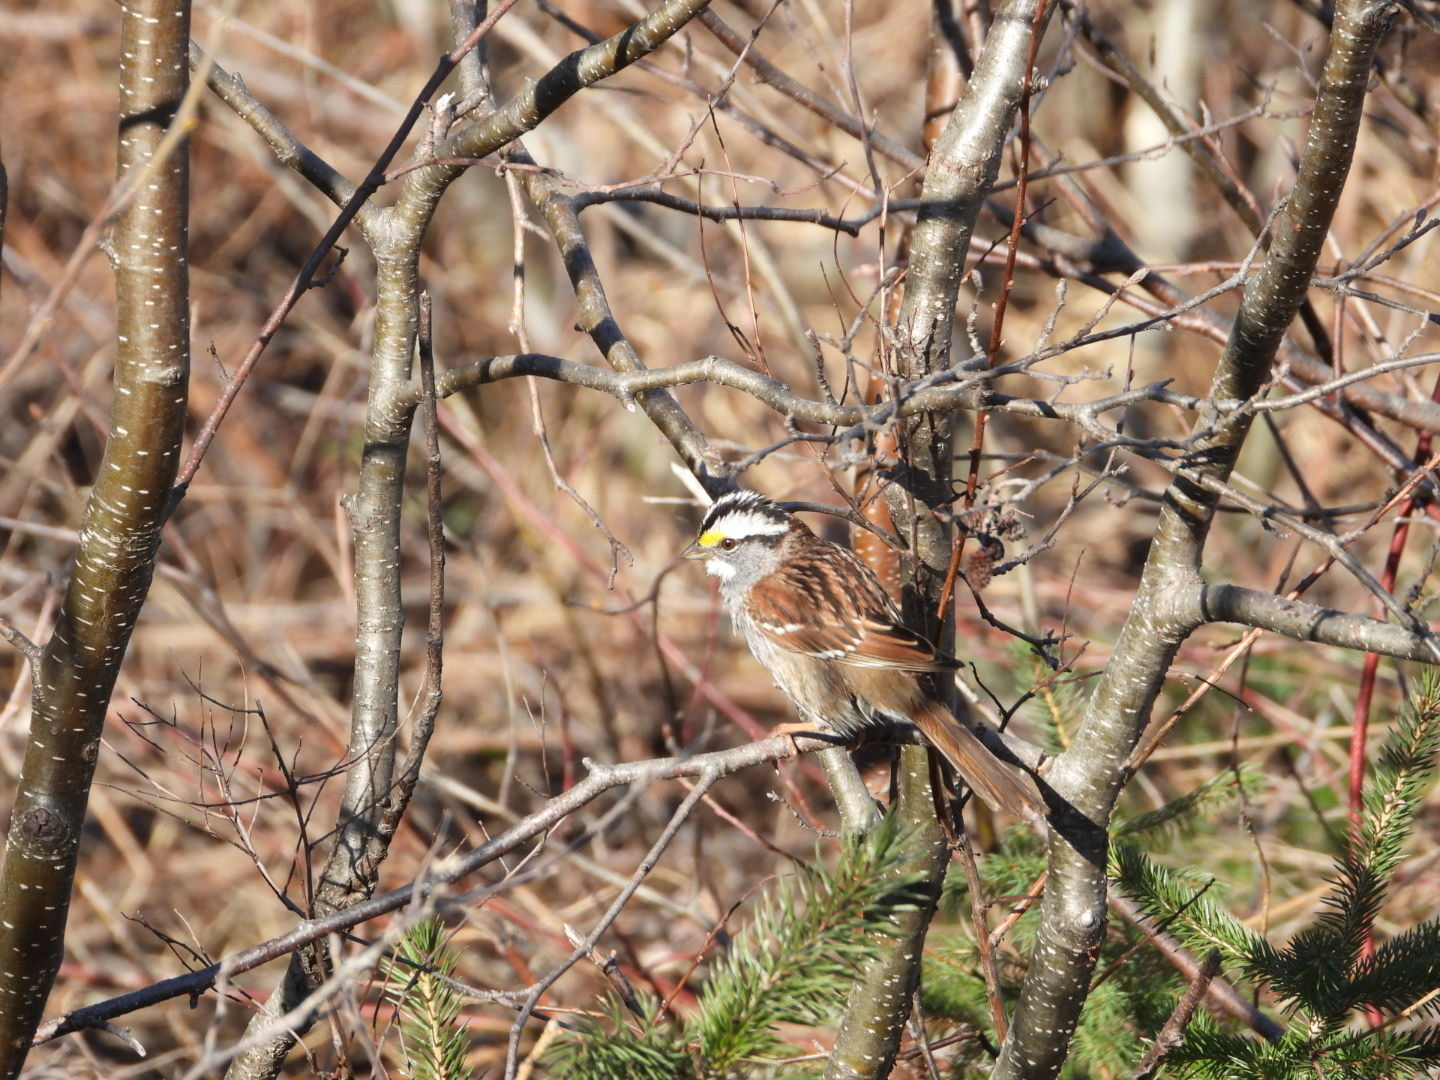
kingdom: Animalia
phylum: Chordata
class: Aves
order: Passeriformes
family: Passerellidae
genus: Zonotrichia
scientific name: Zonotrichia albicollis
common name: White-throated sparrow
